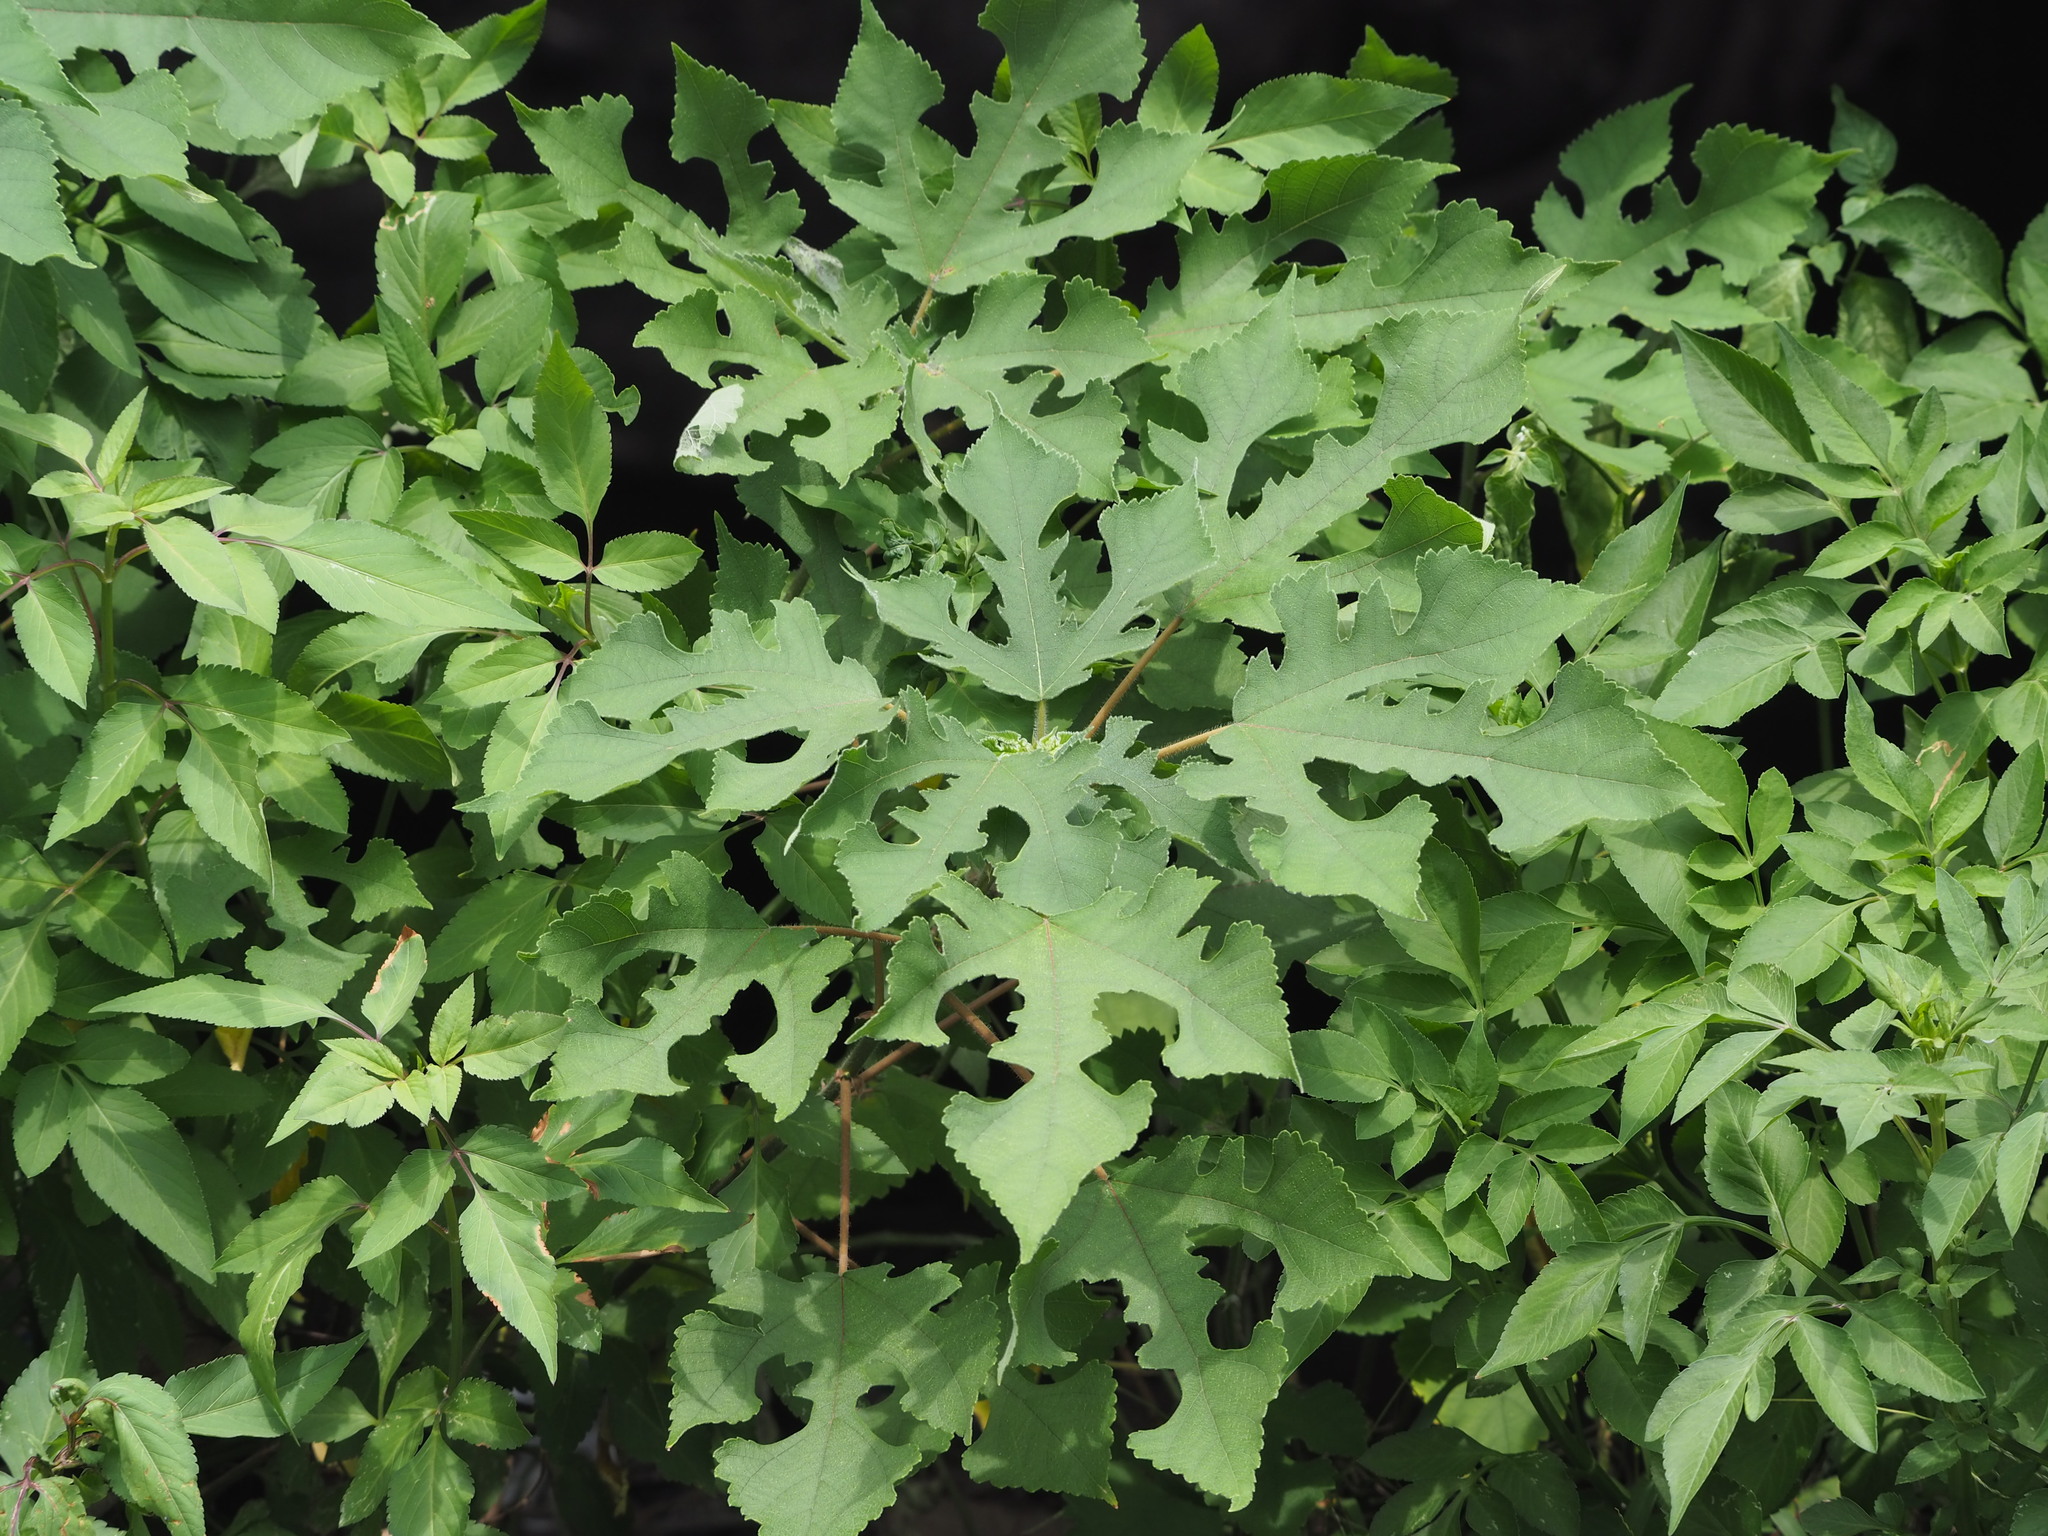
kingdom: Plantae
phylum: Tracheophyta
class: Magnoliopsida
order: Rosales
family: Moraceae
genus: Broussonetia
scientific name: Broussonetia papyrifera
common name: Paper mulberry
